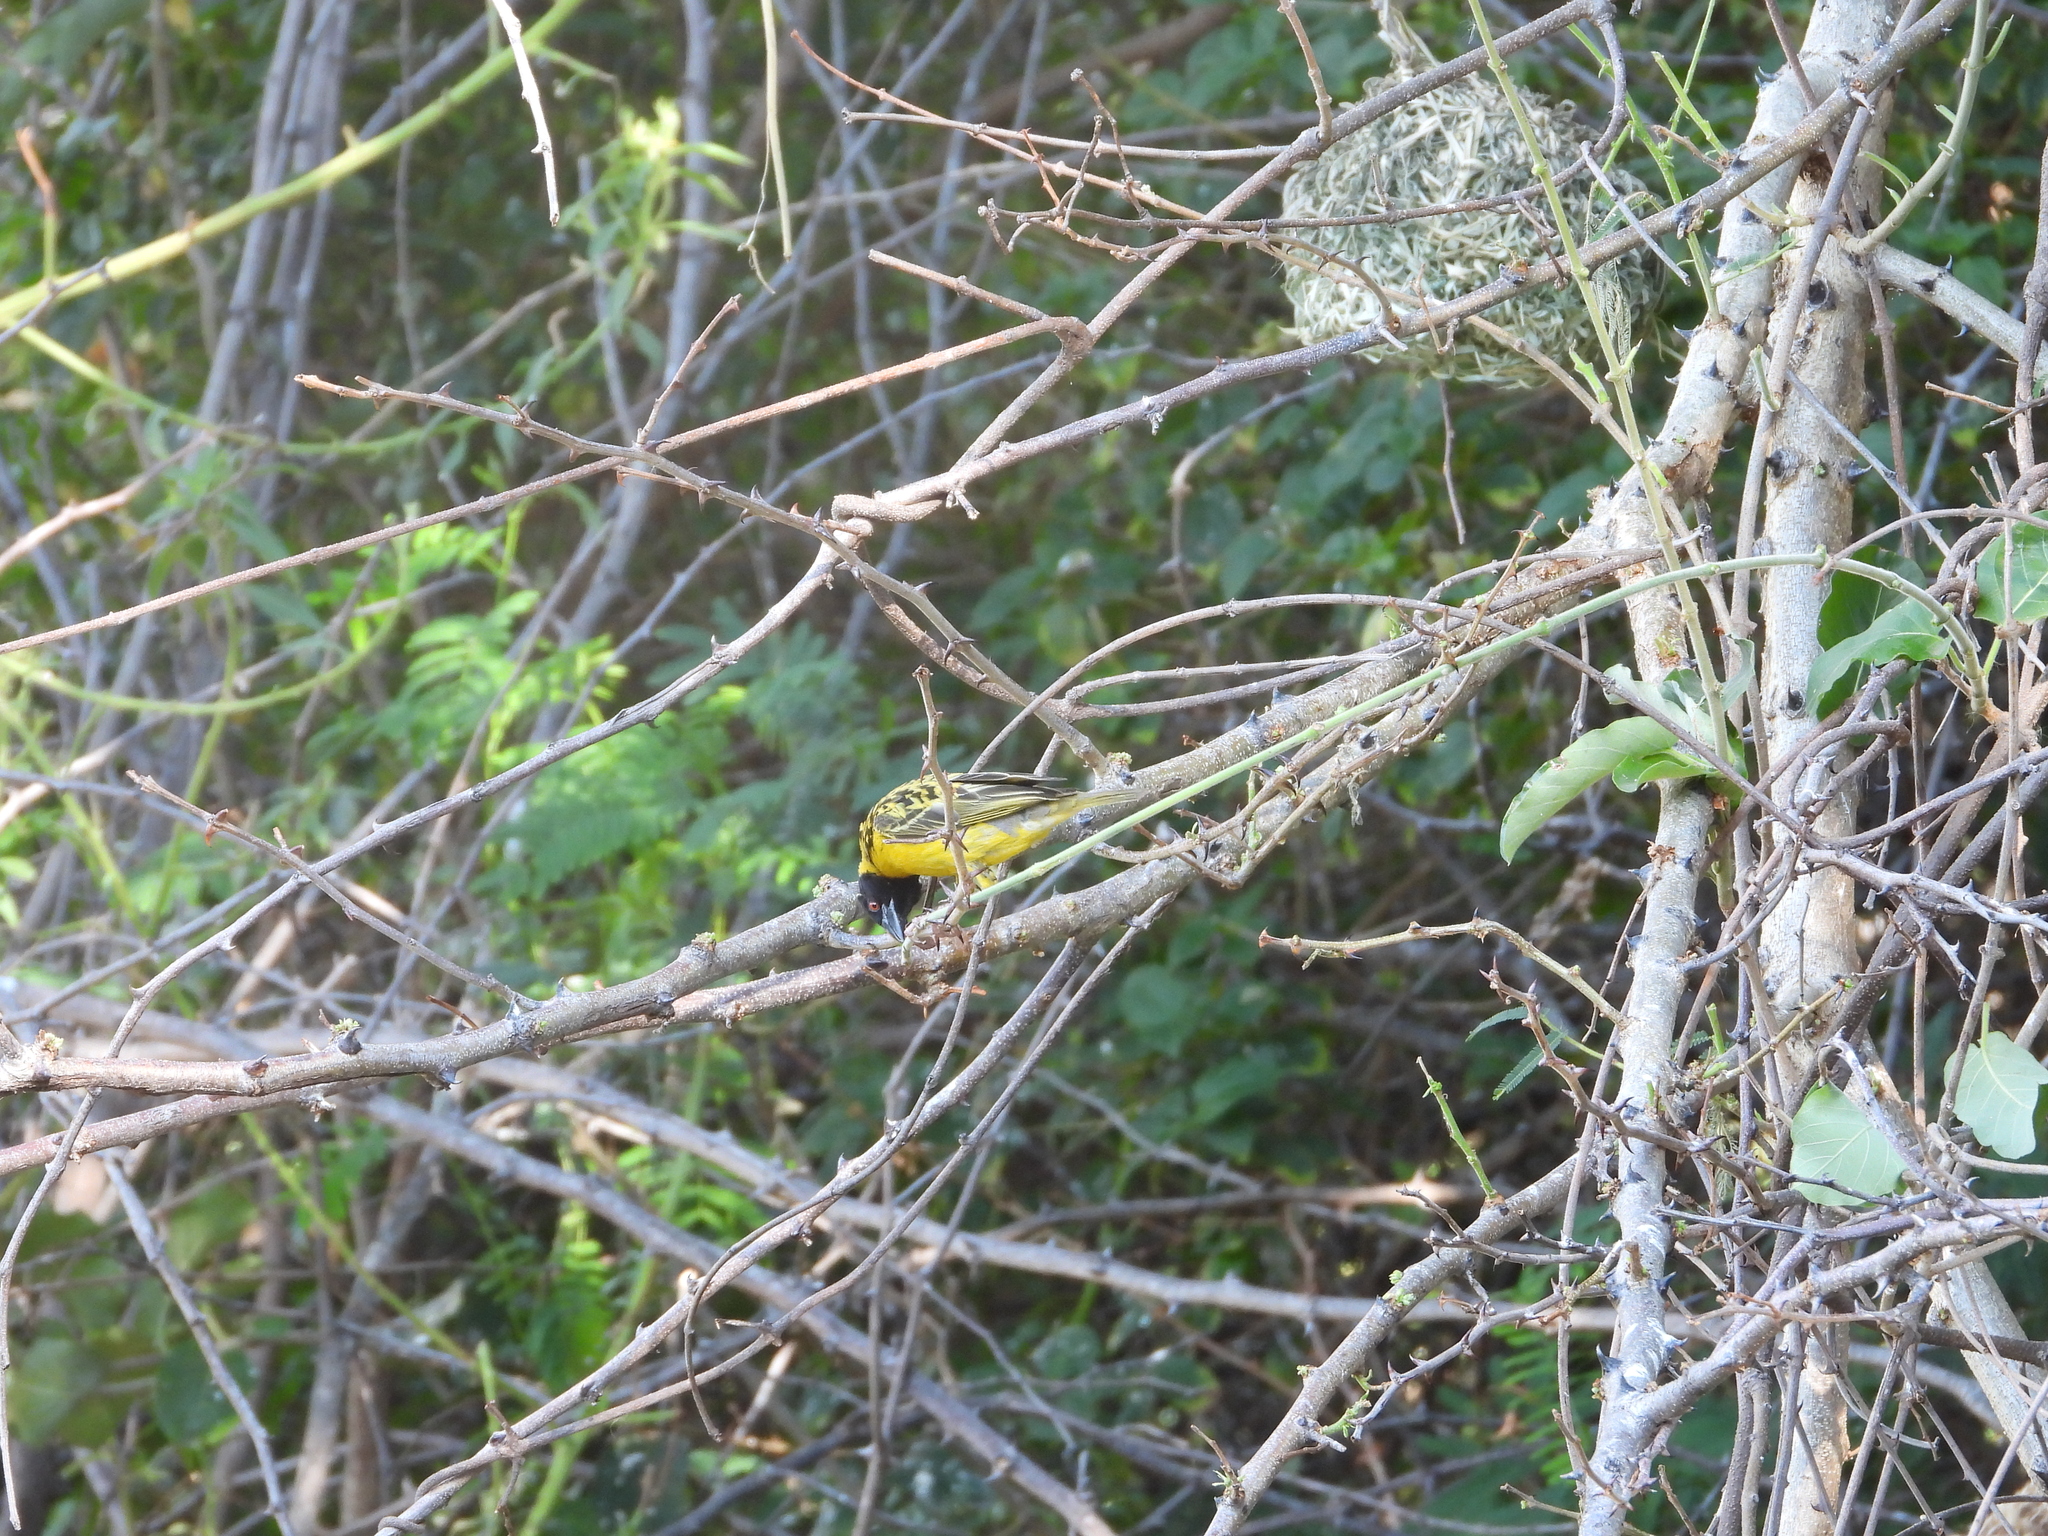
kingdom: Animalia
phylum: Chordata
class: Aves
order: Passeriformes
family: Ploceidae
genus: Ploceus
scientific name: Ploceus cucullatus
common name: Village weaver
